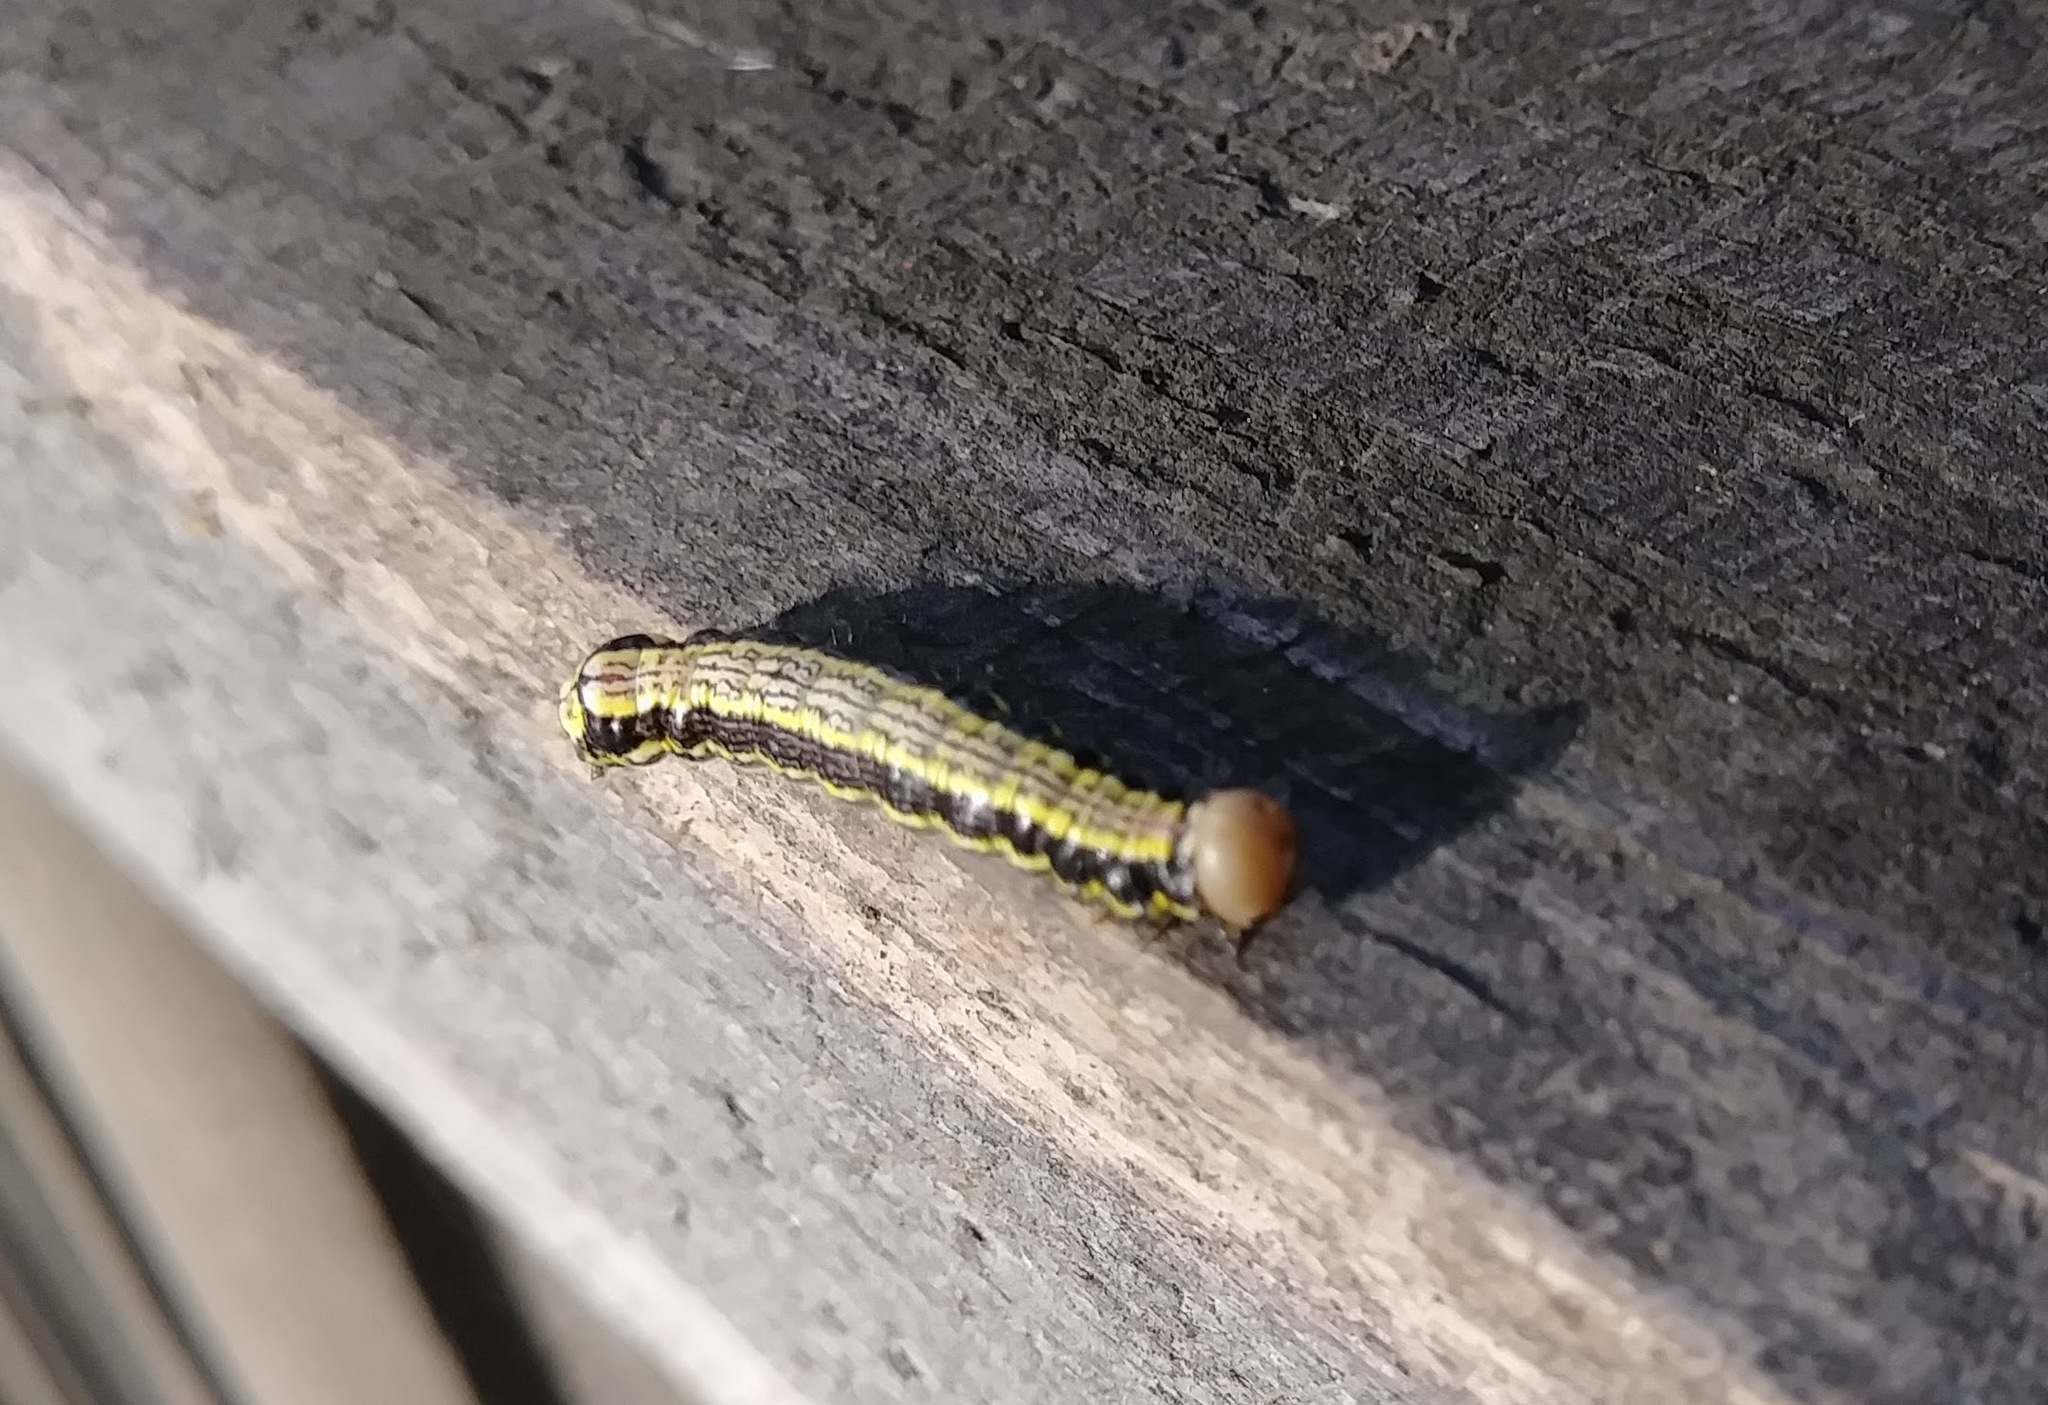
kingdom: Animalia
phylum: Arthropoda
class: Insecta
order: Lepidoptera
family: Notodontidae
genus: Phryganidia
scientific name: Phryganidia californica
